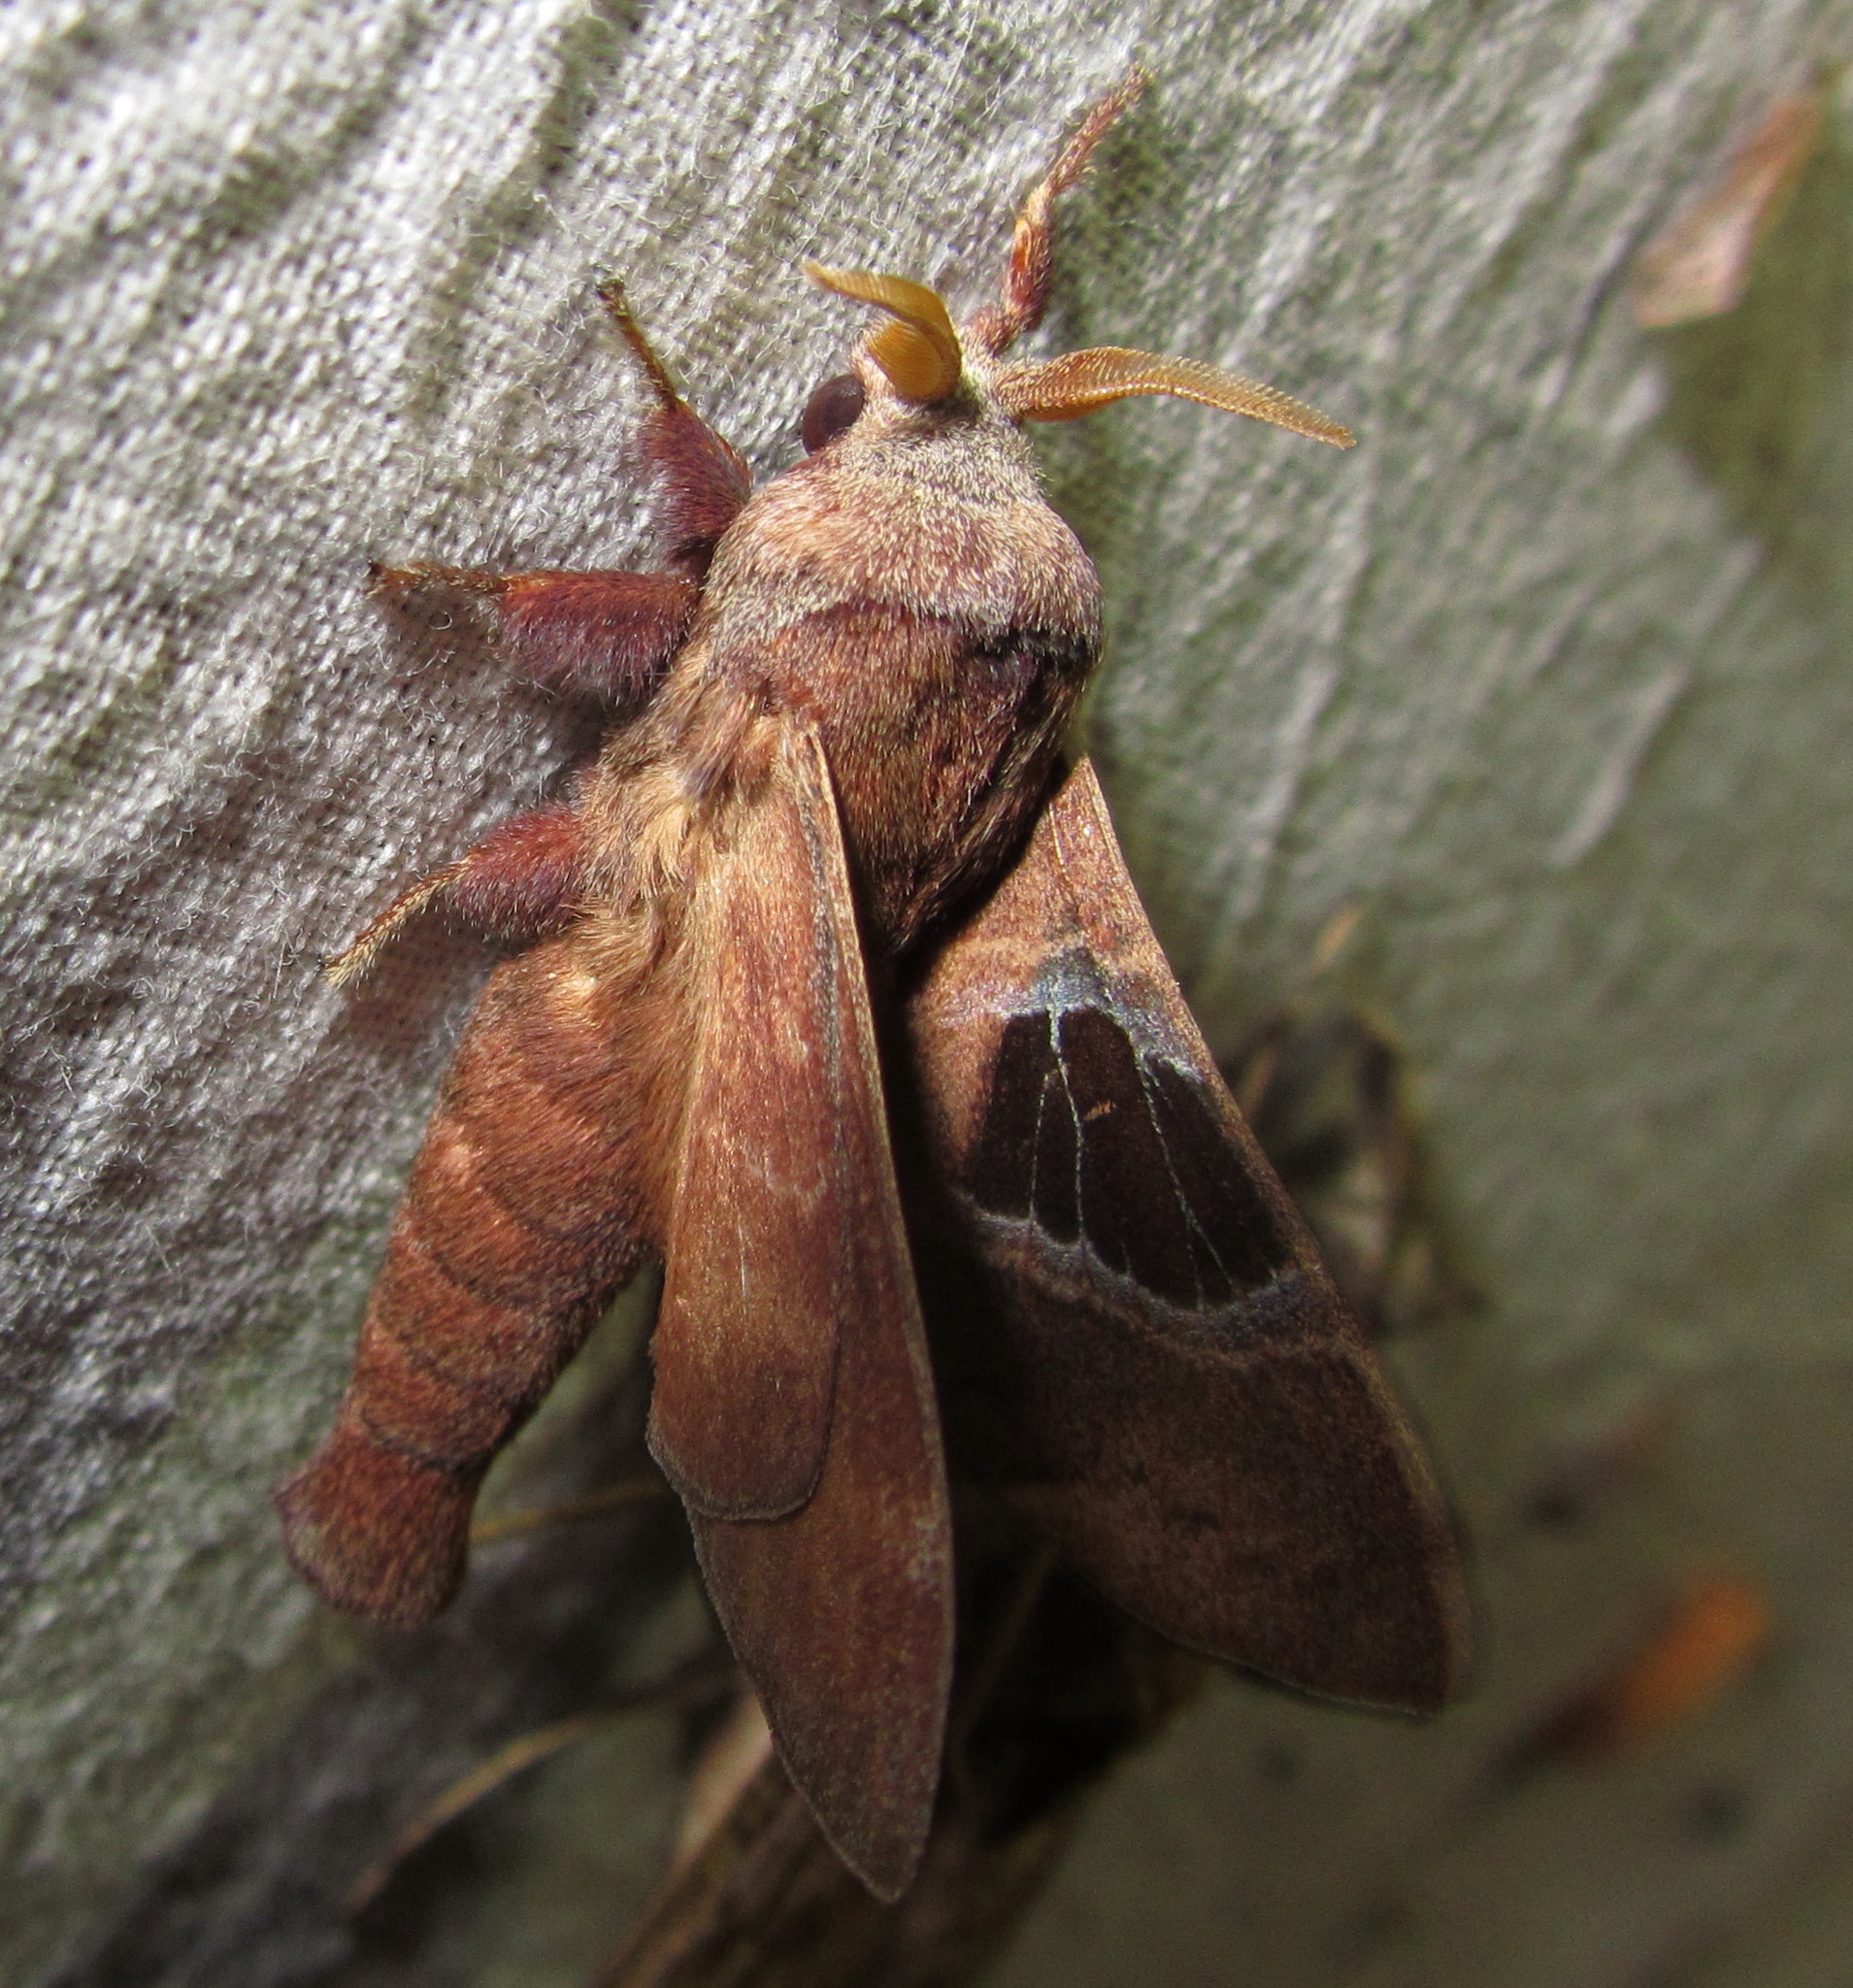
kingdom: Animalia
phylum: Arthropoda
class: Insecta
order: Lepidoptera
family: Lasiocampidae
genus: Metanastria
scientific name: Metanastria gemella
